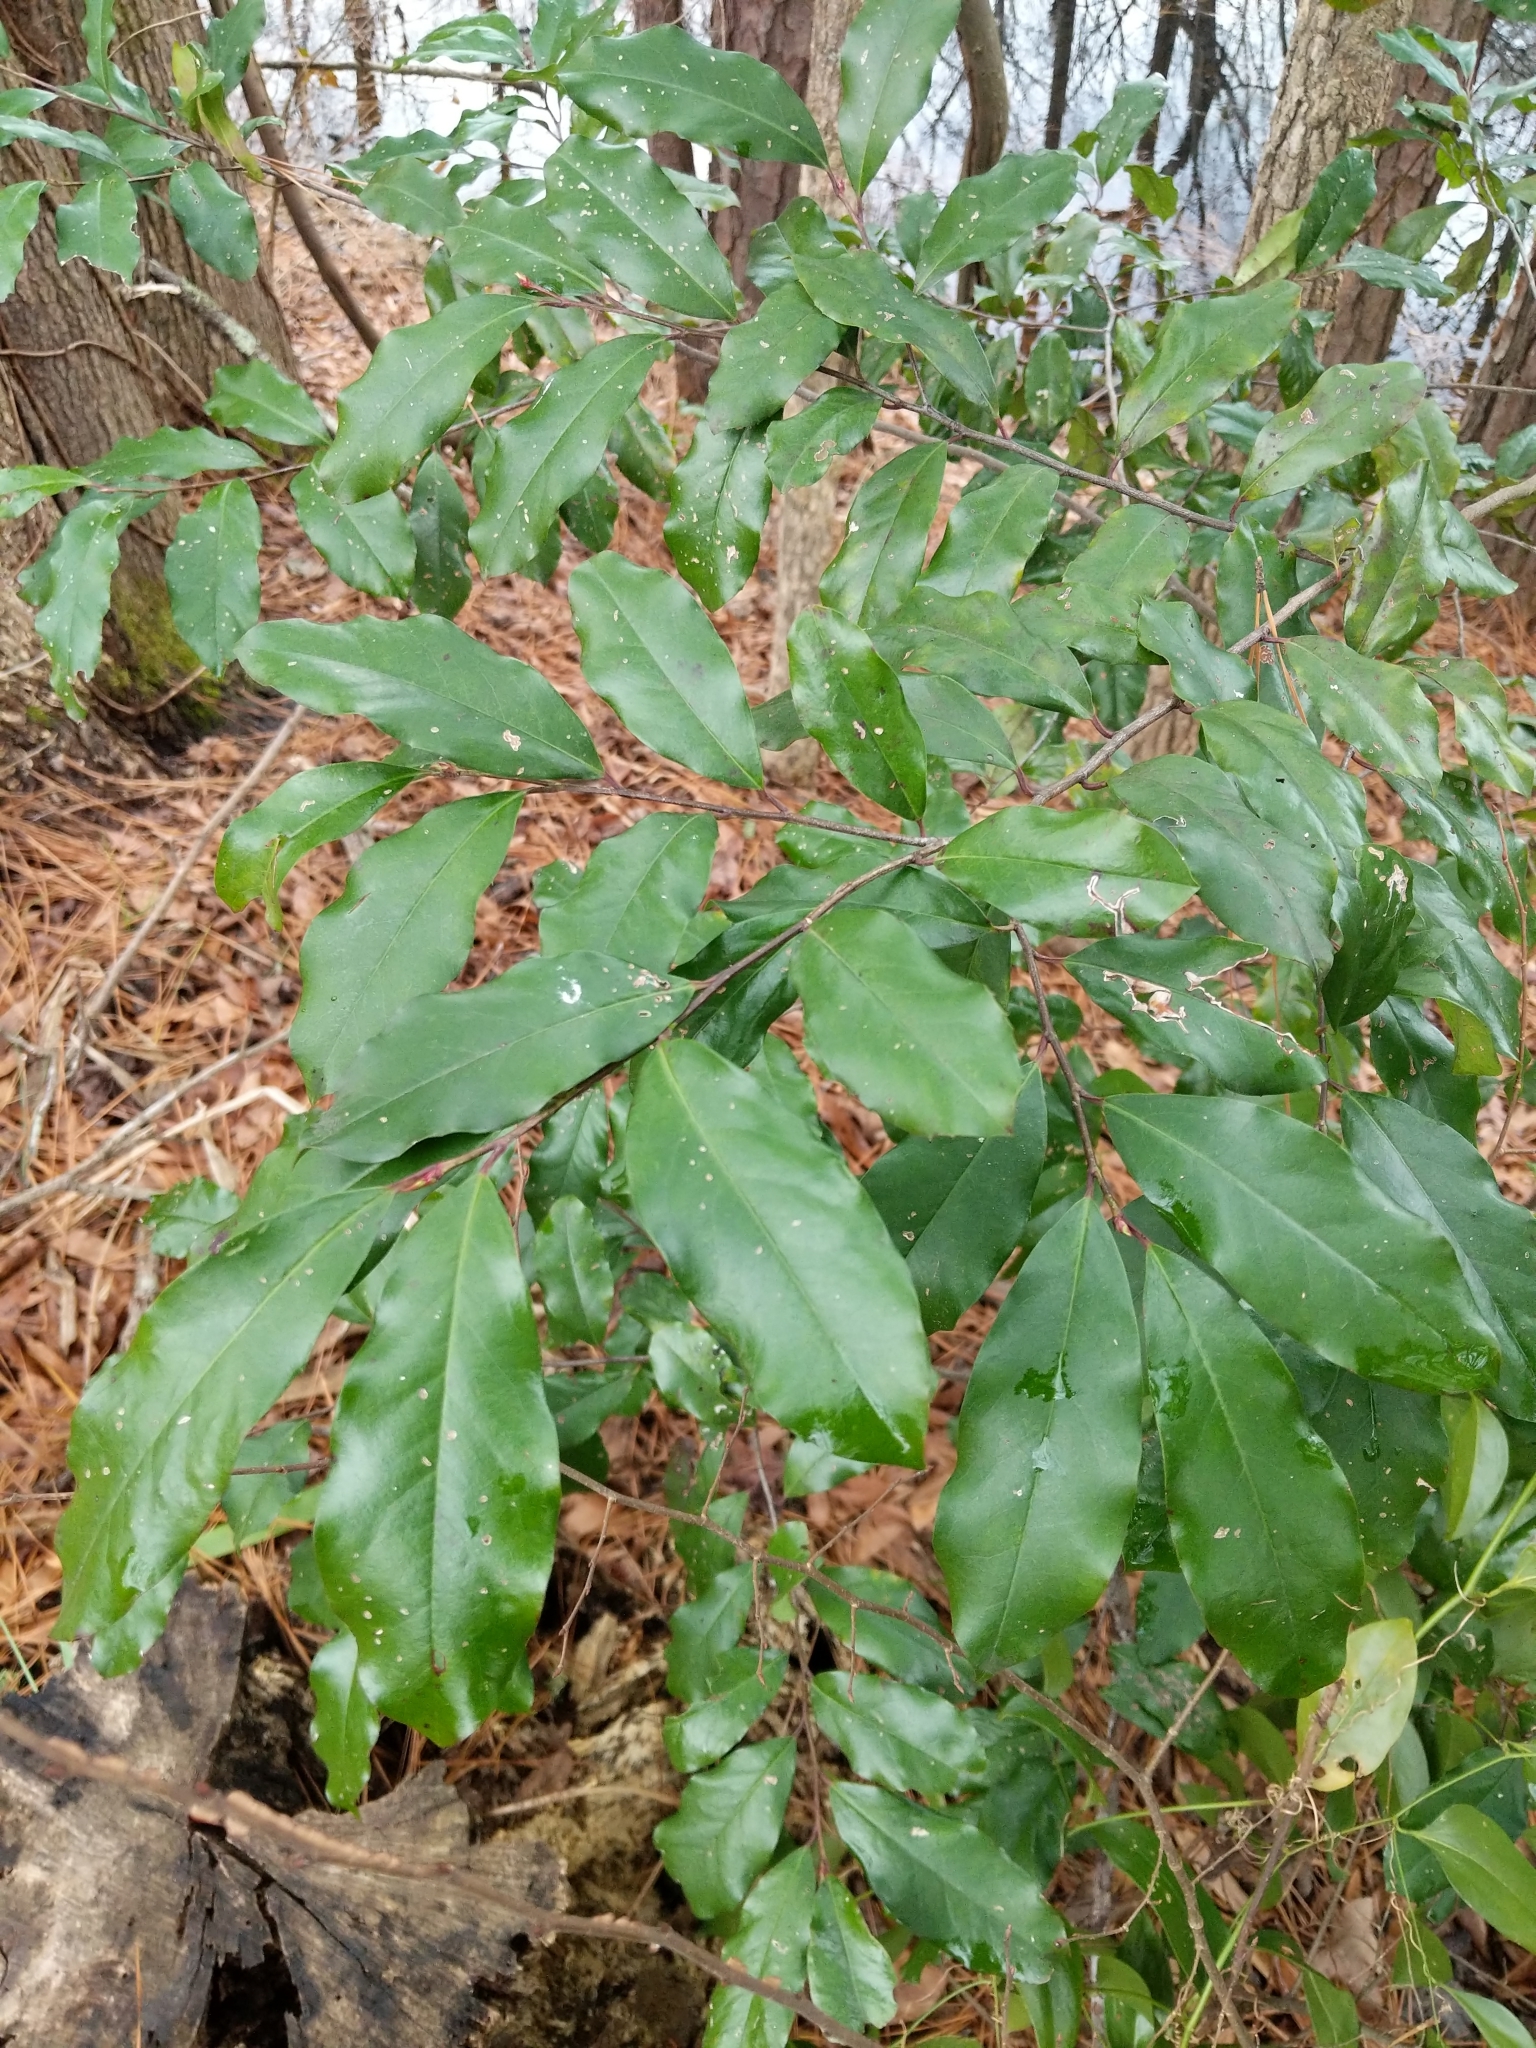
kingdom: Plantae
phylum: Tracheophyta
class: Magnoliopsida
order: Rosales
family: Rosaceae
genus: Prunus
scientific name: Prunus caroliniana
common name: Carolina laurel cherry
